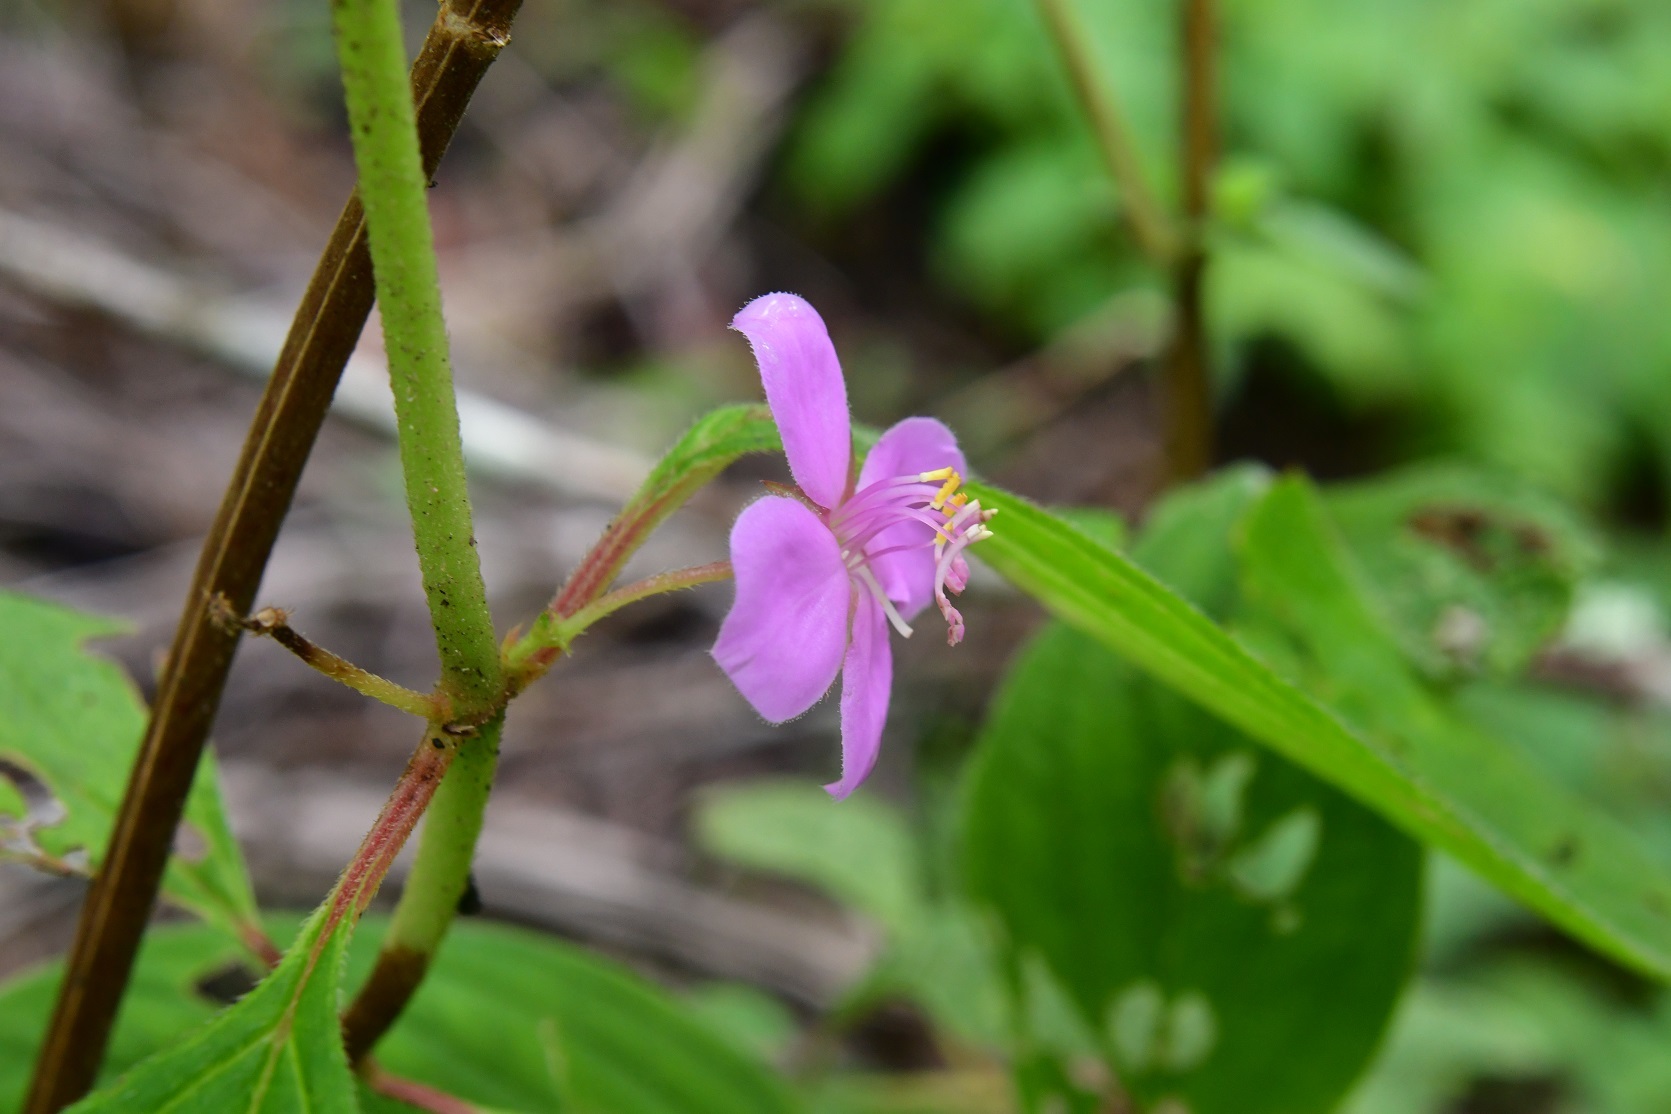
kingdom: Plantae
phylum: Tracheophyta
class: Magnoliopsida
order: Myrtales
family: Melastomataceae
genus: Heterocentron
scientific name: Heterocentron muricatum
